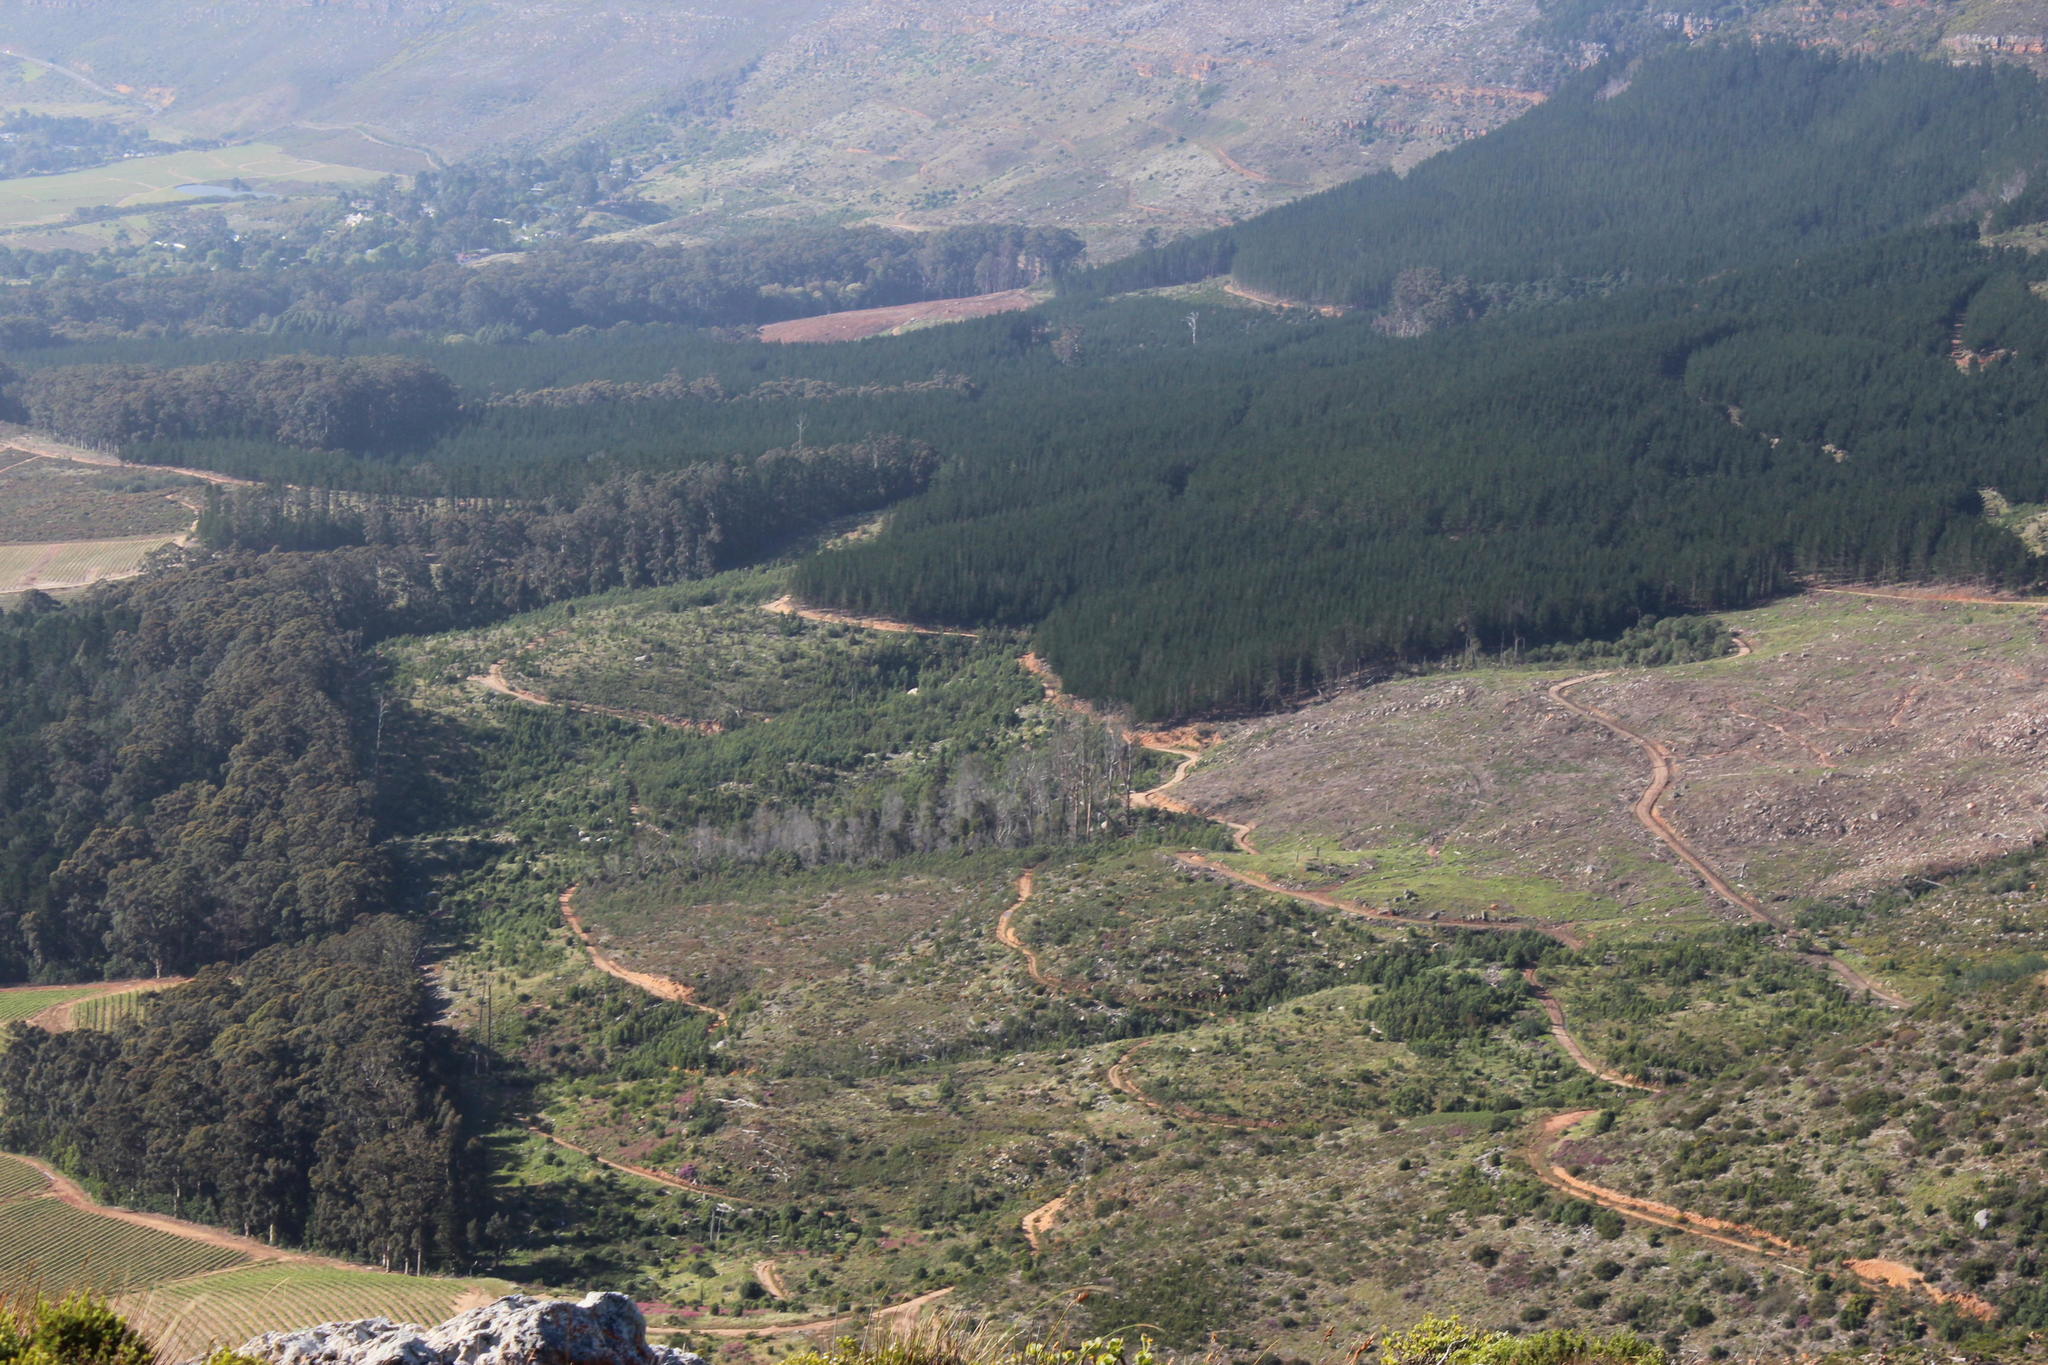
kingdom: Plantae
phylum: Tracheophyta
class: Pinopsida
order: Pinales
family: Pinaceae
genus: Pinus
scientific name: Pinus radiata
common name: Monterey pine
